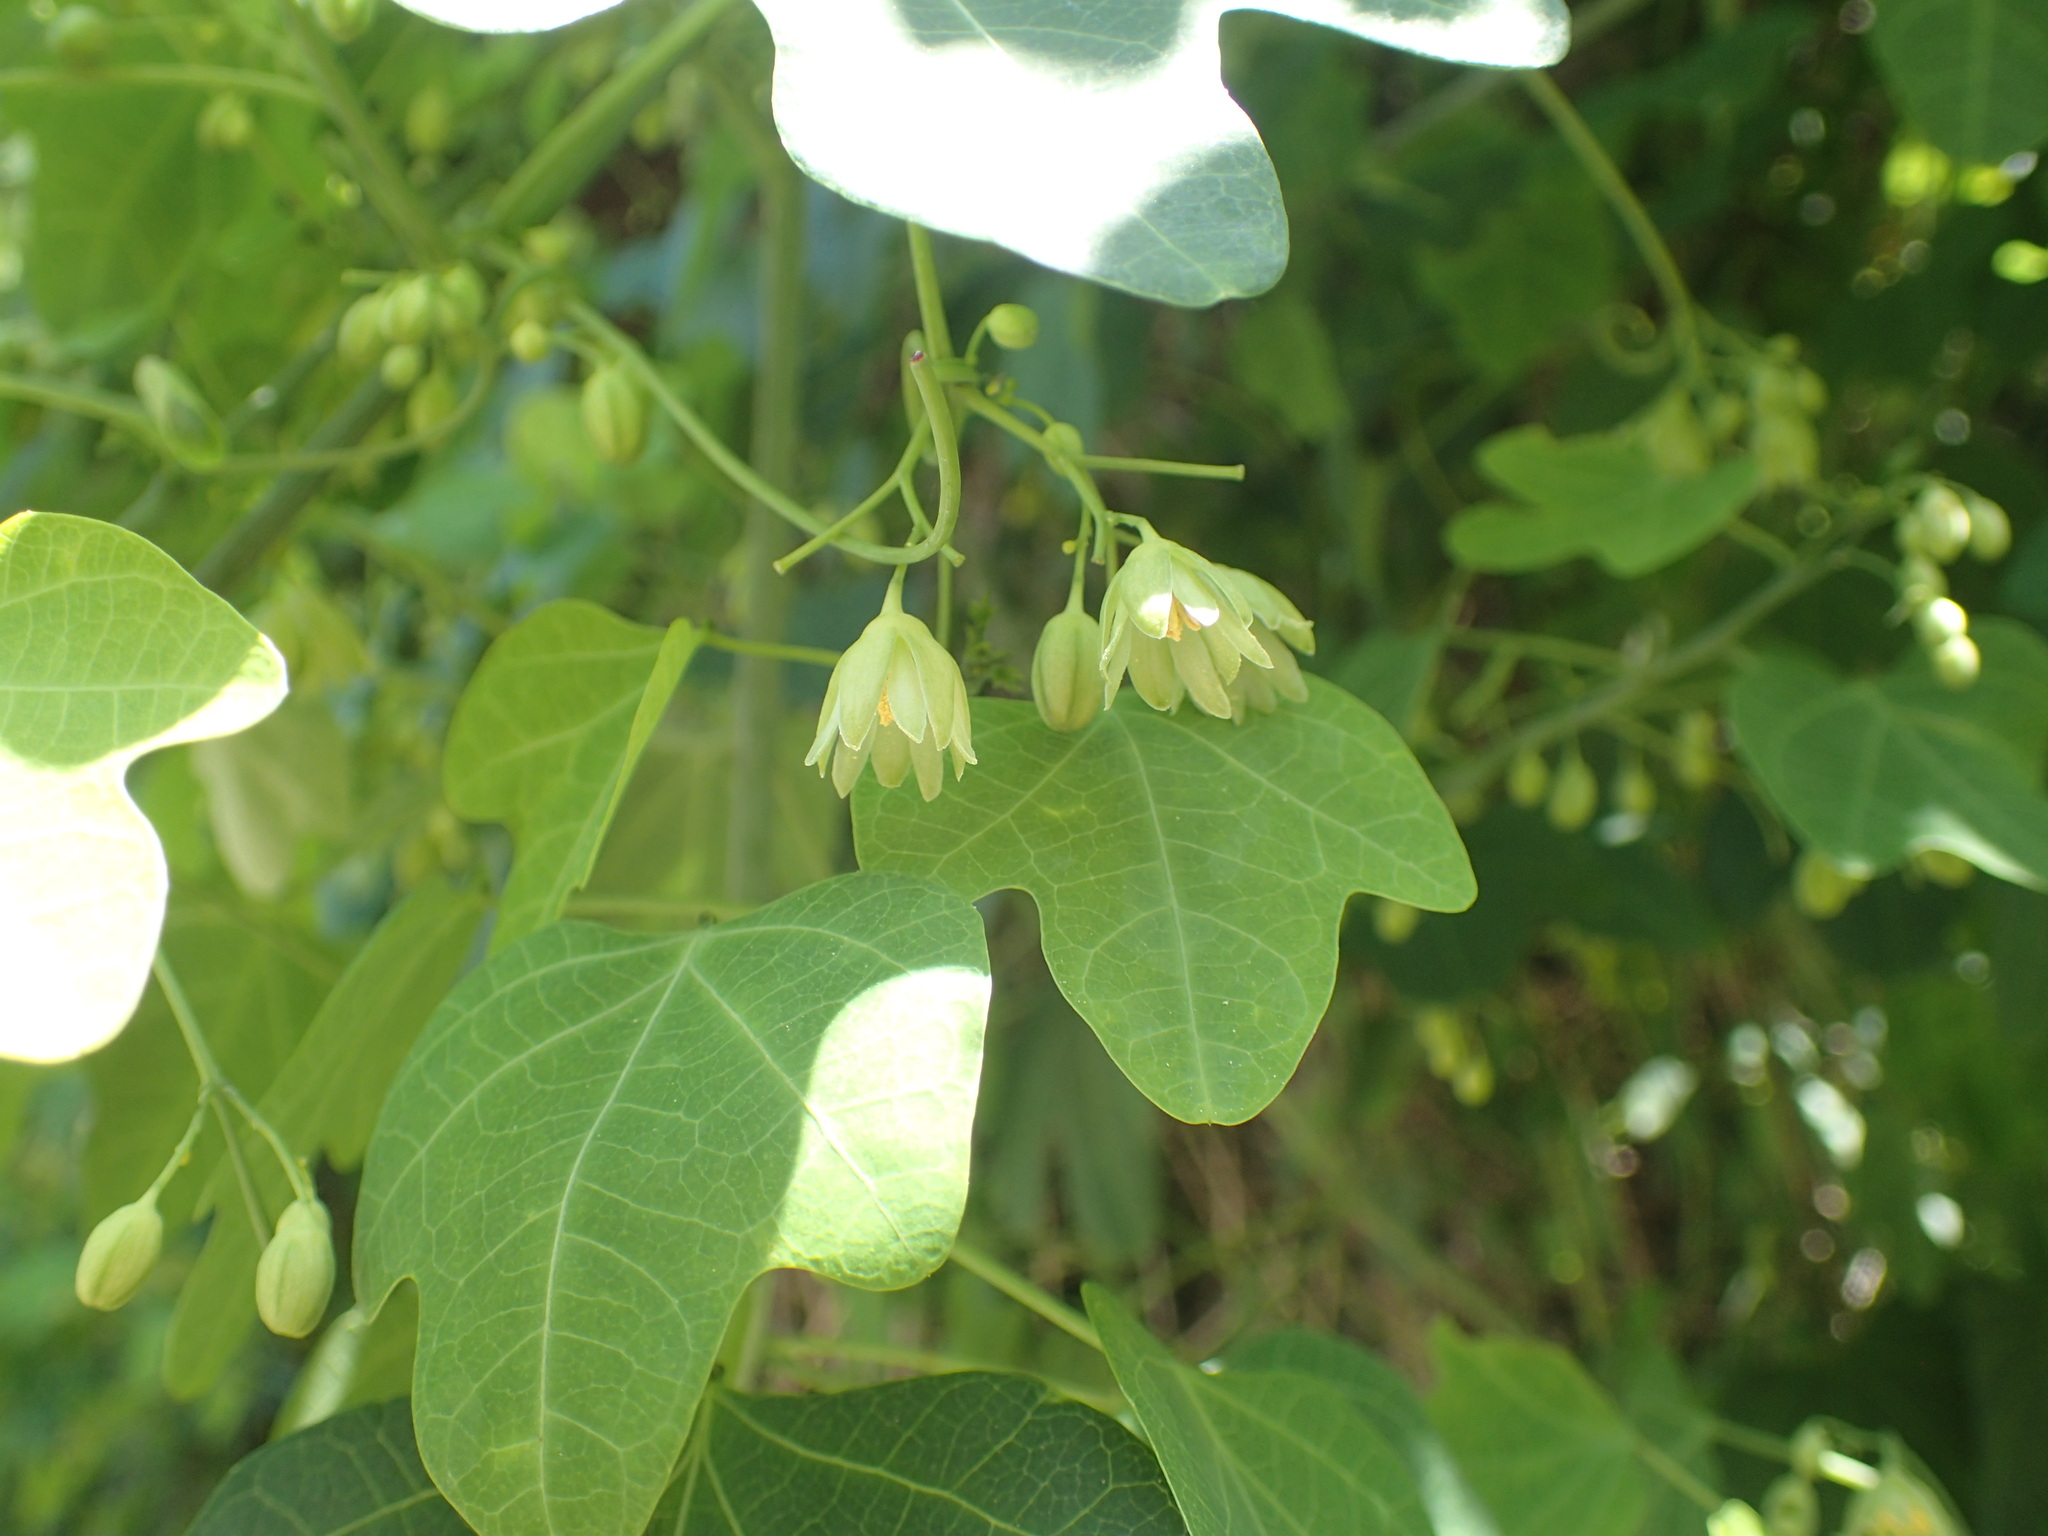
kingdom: Plantae
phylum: Tracheophyta
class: Magnoliopsida
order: Malpighiales
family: Passifloraceae
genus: Adenia
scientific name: Adenia cissampeloides
